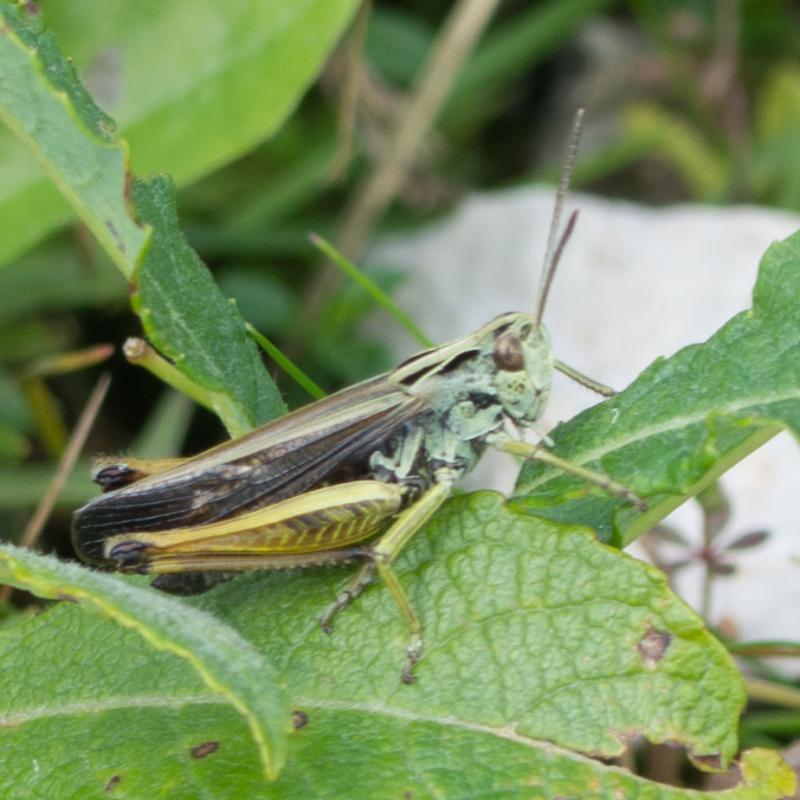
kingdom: Animalia
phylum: Arthropoda
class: Insecta
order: Orthoptera
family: Acrididae
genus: Omocestus
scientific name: Omocestus viridulus
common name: Common green grasshopper
